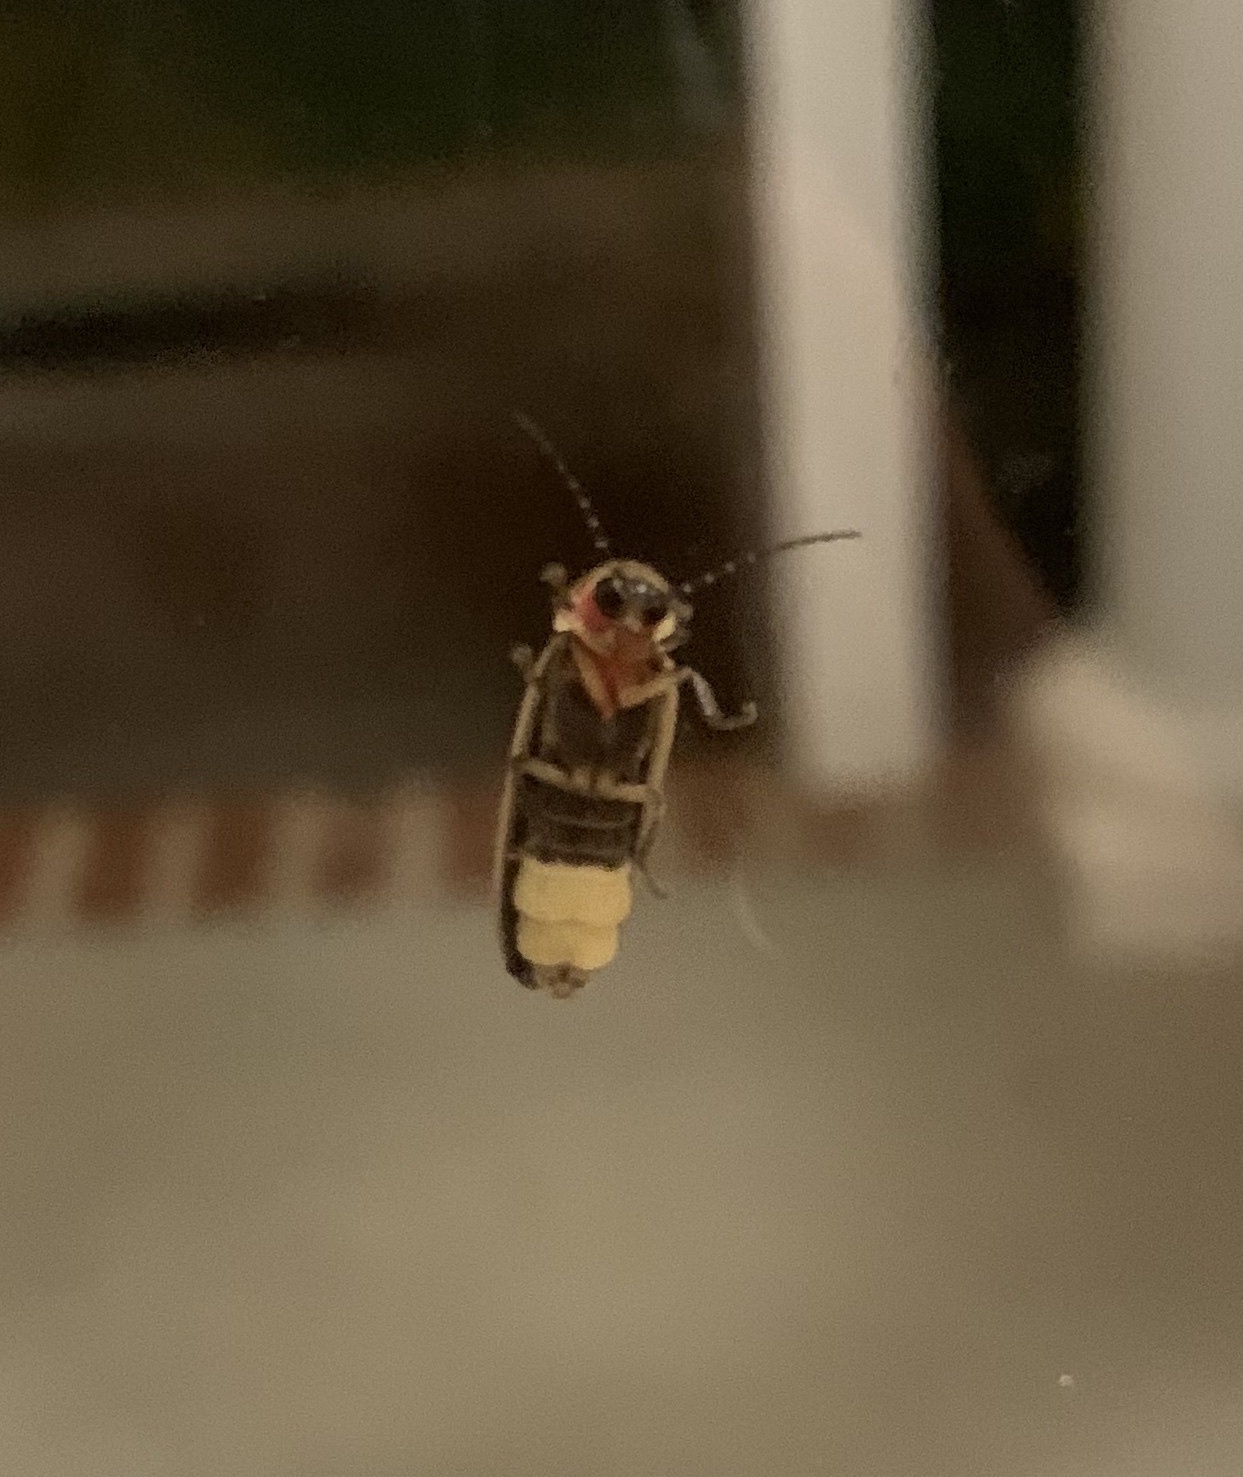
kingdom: Animalia
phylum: Arthropoda
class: Insecta
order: Coleoptera
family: Lampyridae
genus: Photinus
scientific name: Photinus pyralis
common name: Big dipper firefly
